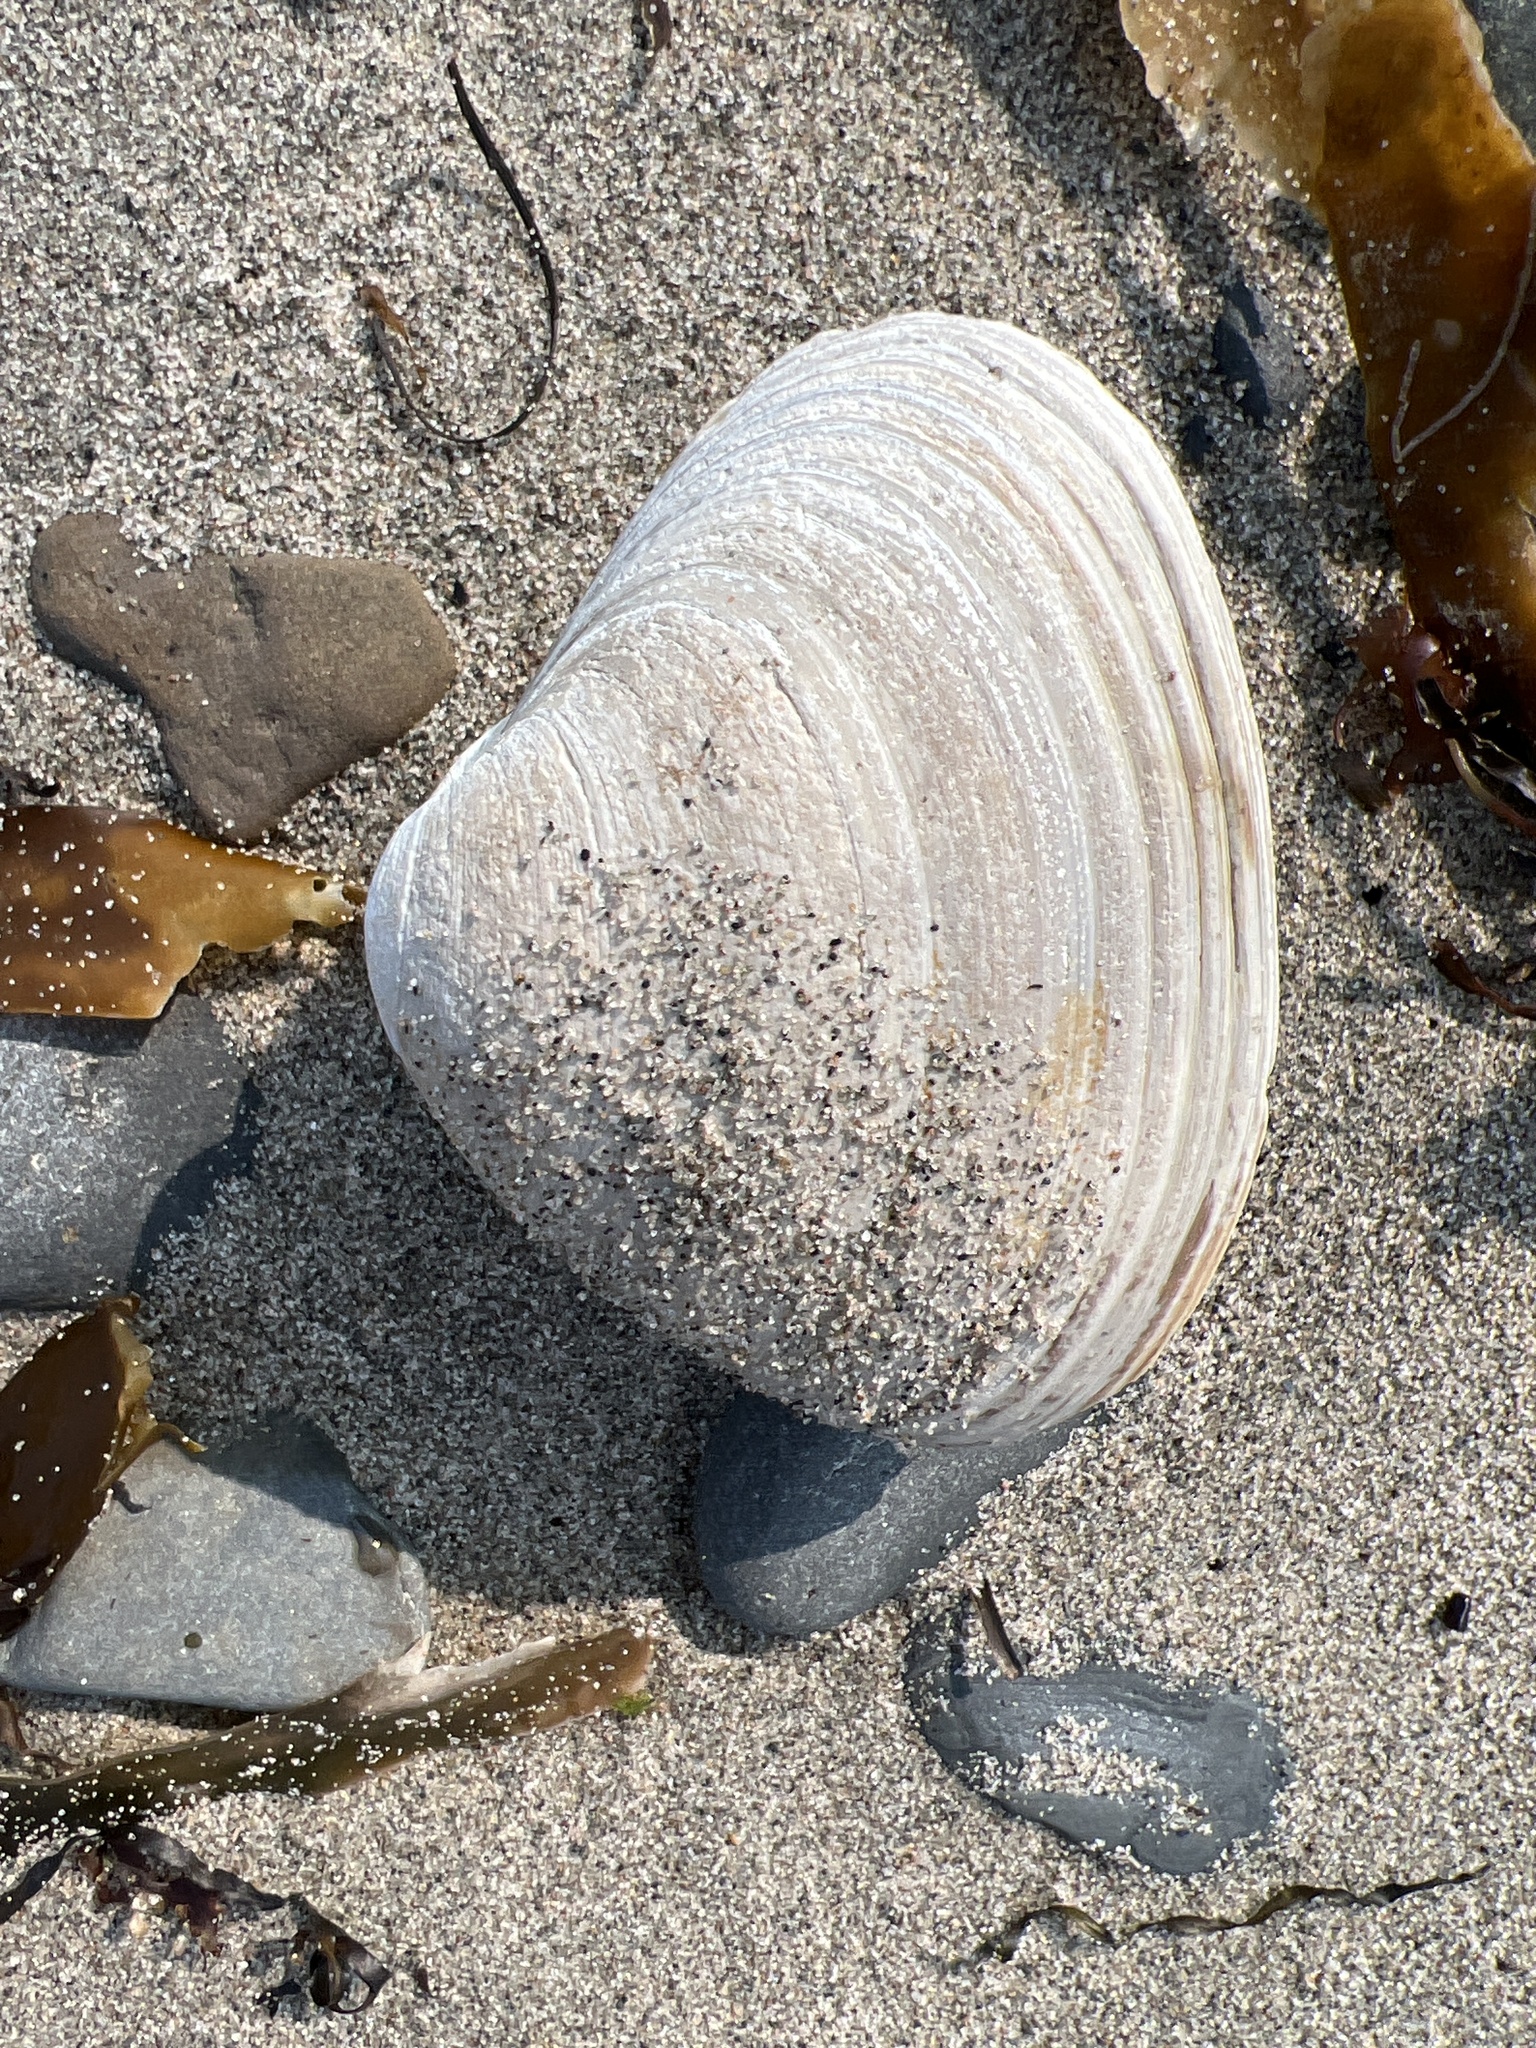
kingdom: Animalia
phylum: Mollusca
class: Bivalvia
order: Venerida
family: Mactridae
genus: Spisula
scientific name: Spisula solidissima
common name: Atlantic surf clam
